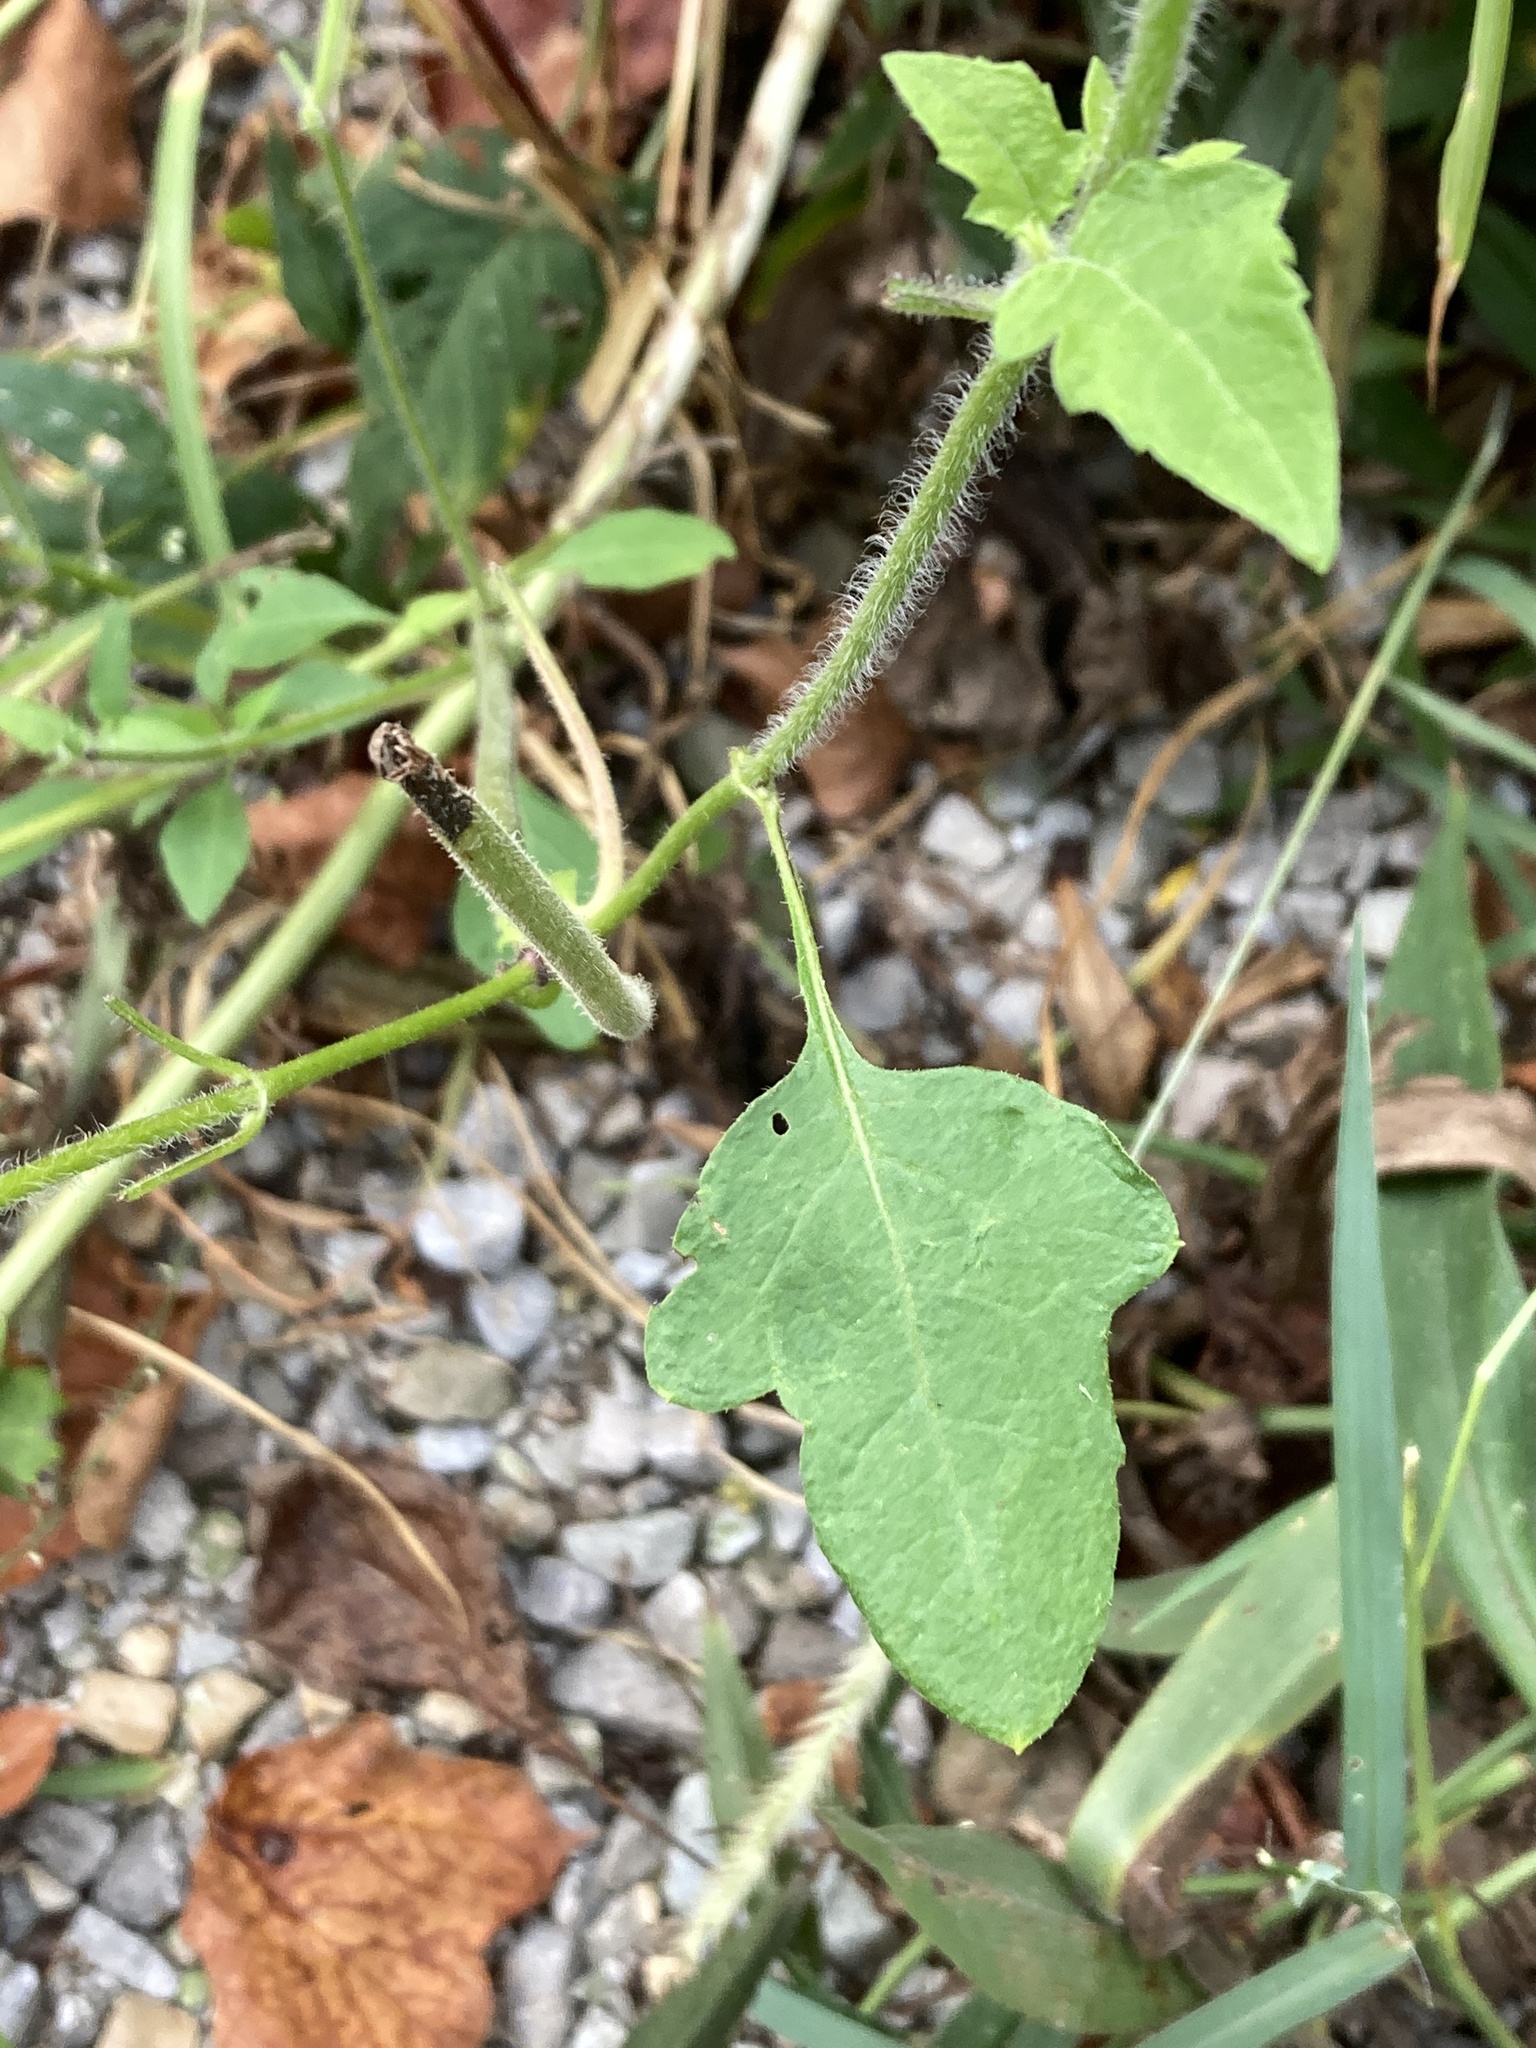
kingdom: Plantae
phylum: Tracheophyta
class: Magnoliopsida
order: Asterales
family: Asteraceae
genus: Polymnia
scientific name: Polymnia canadensis
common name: Pale-flowered leafcup
